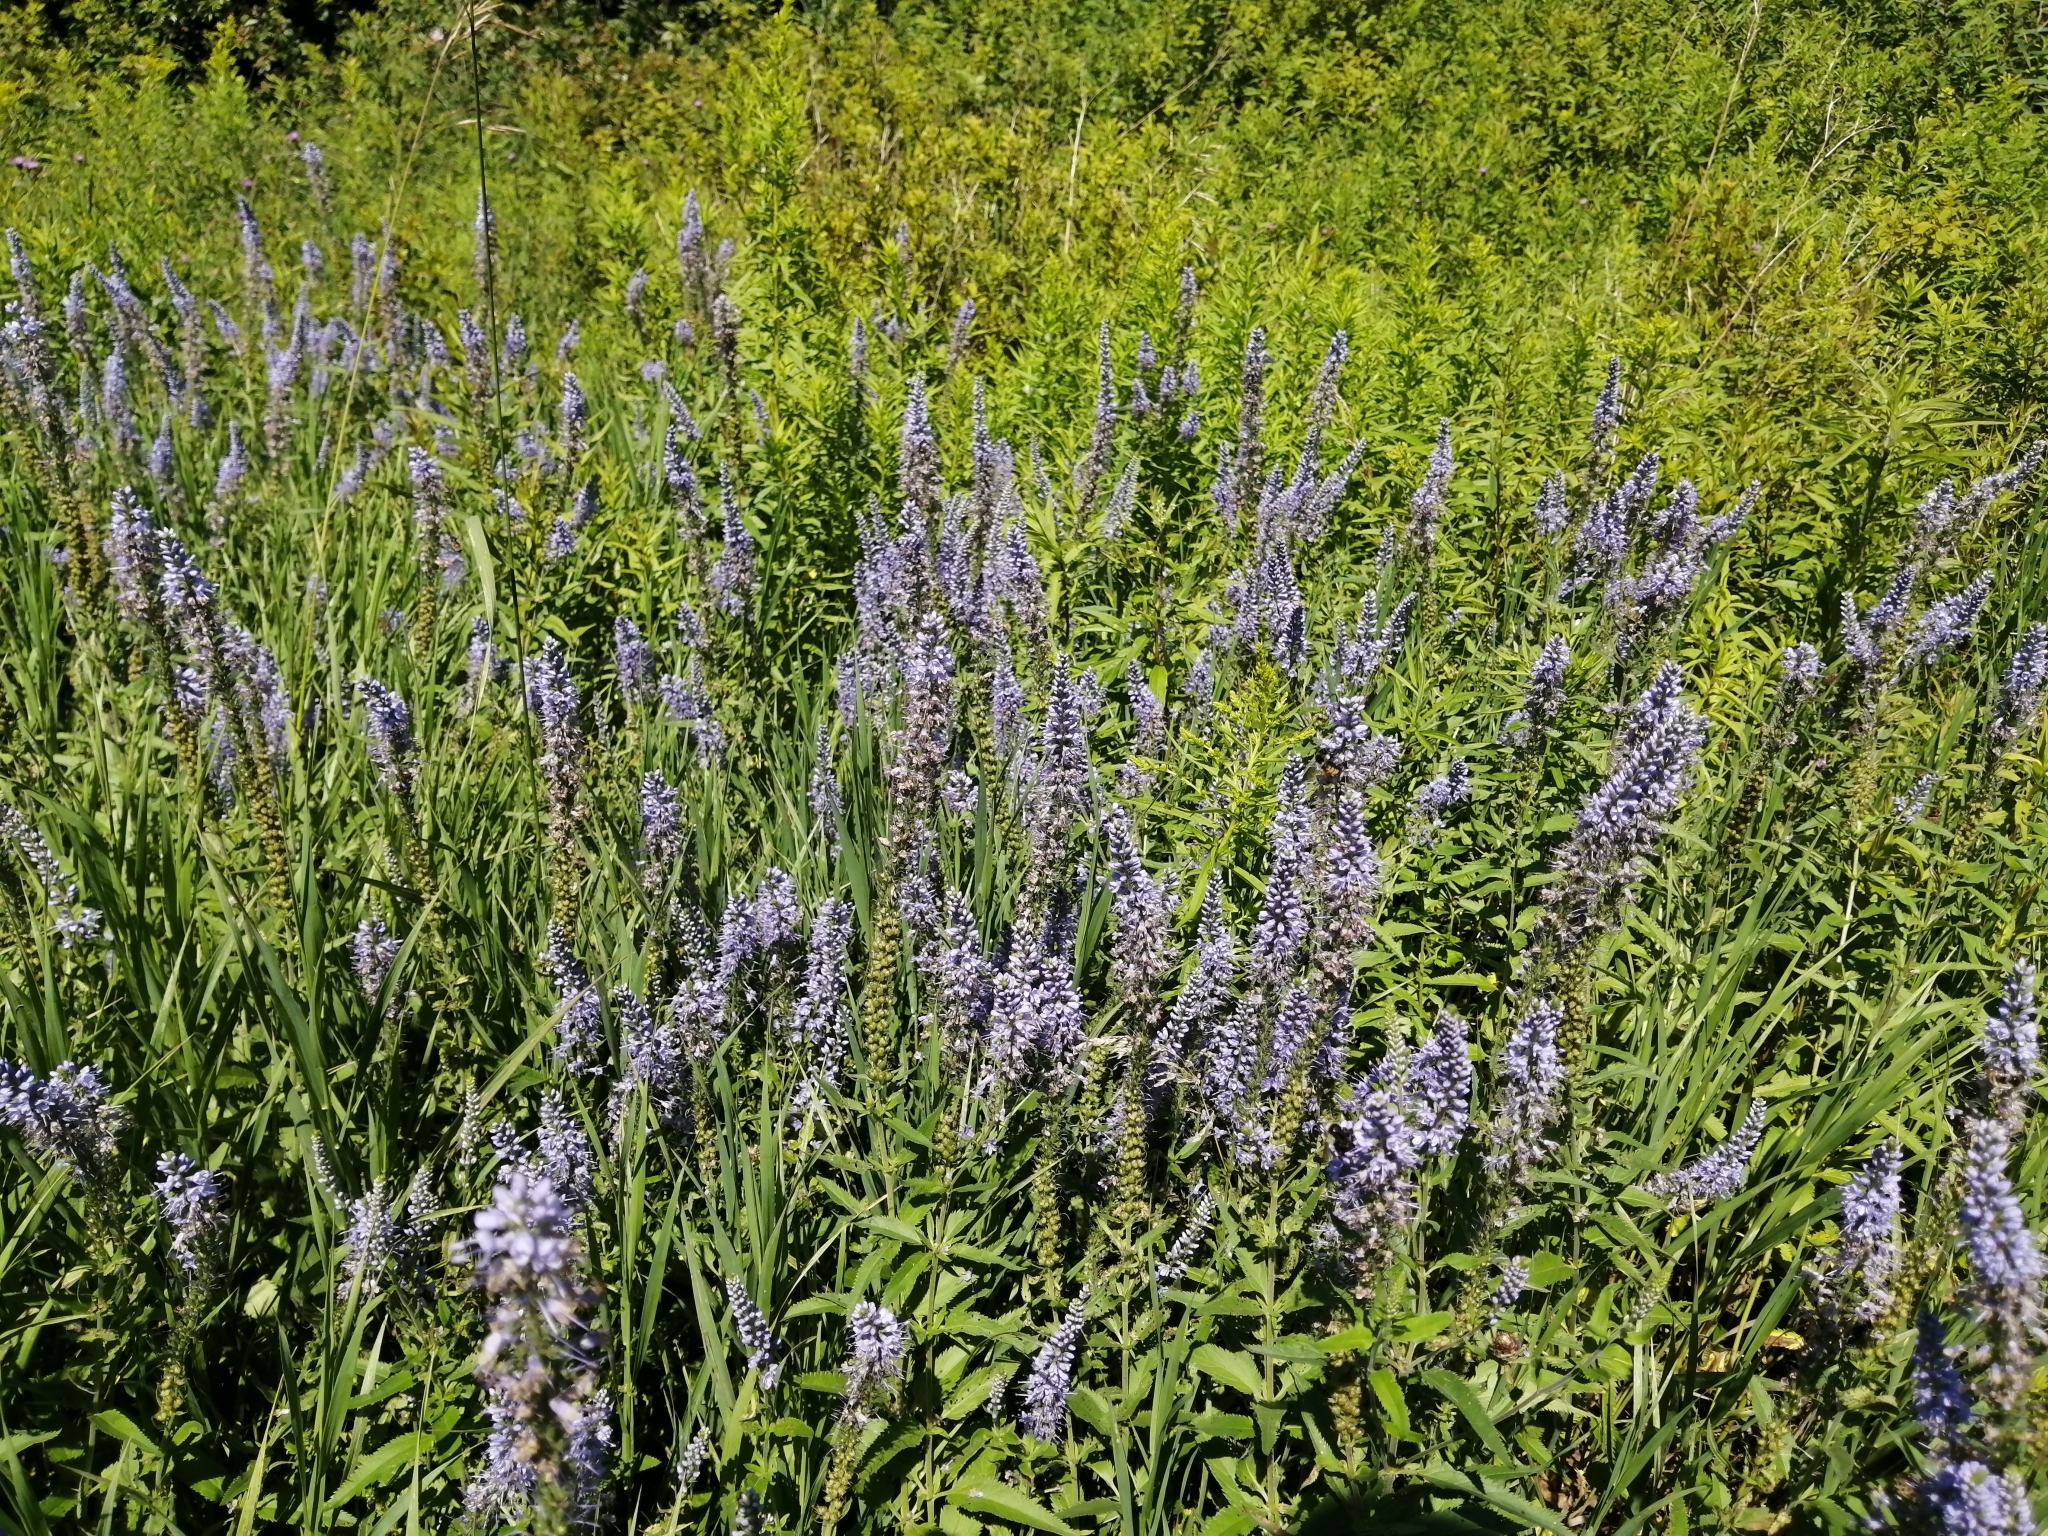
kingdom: Plantae
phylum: Tracheophyta
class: Magnoliopsida
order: Lamiales
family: Plantaginaceae
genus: Veronica
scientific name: Veronica longifolia
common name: Garden speedwell
